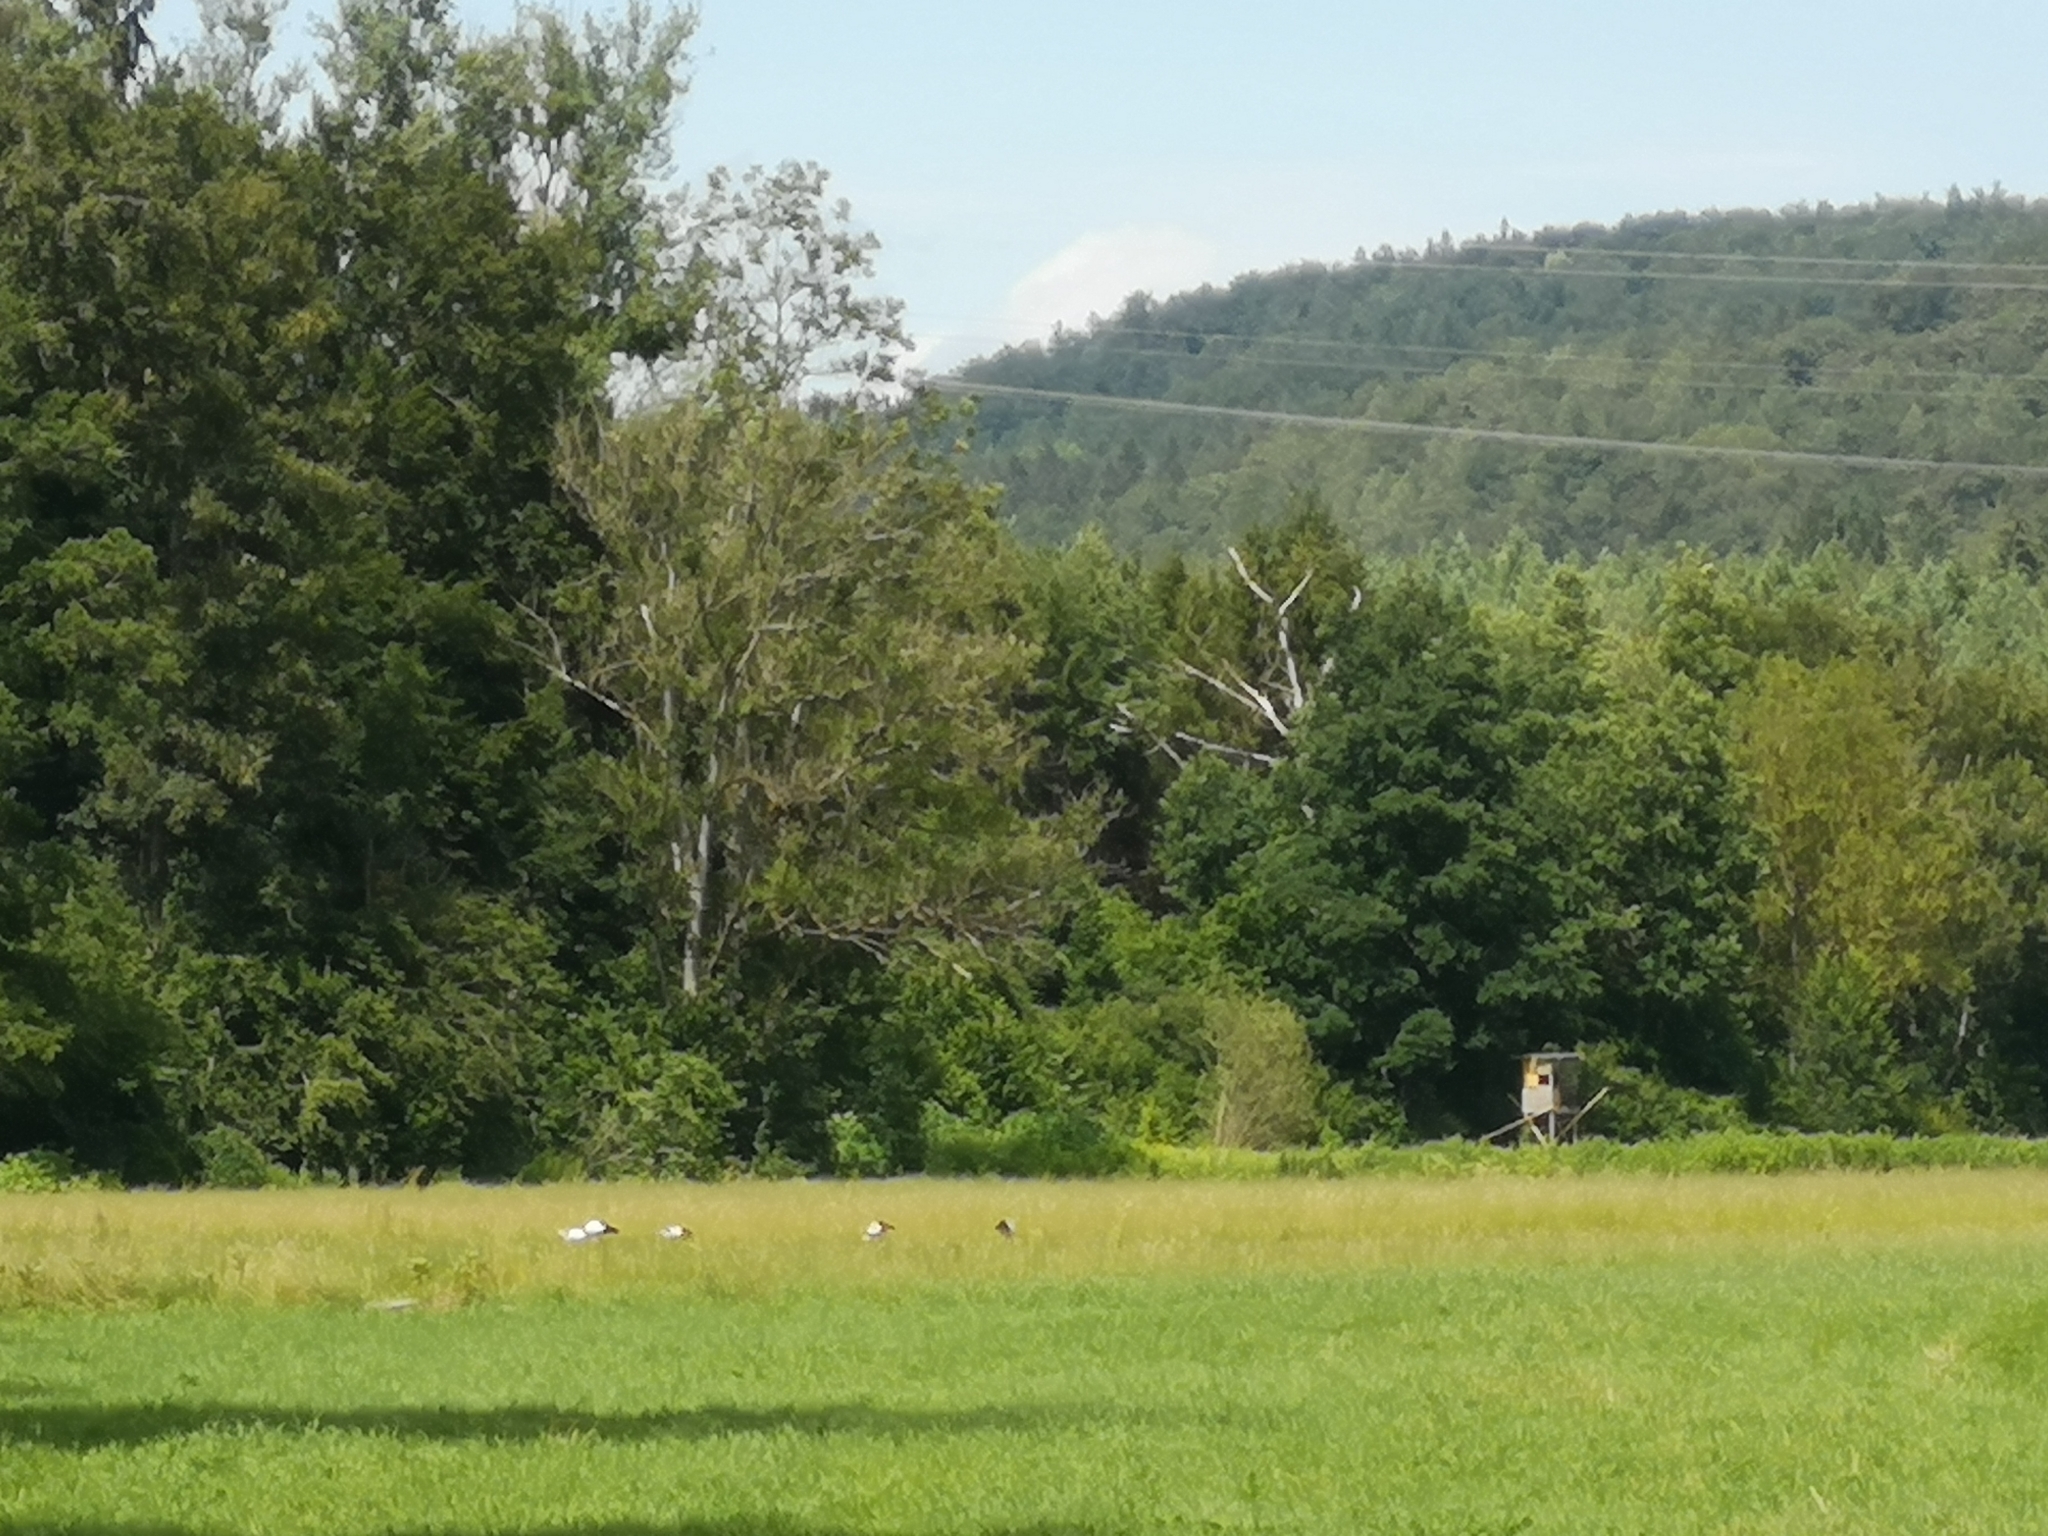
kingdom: Animalia
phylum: Chordata
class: Aves
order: Ciconiiformes
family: Ciconiidae
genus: Ciconia
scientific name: Ciconia ciconia
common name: White stork
